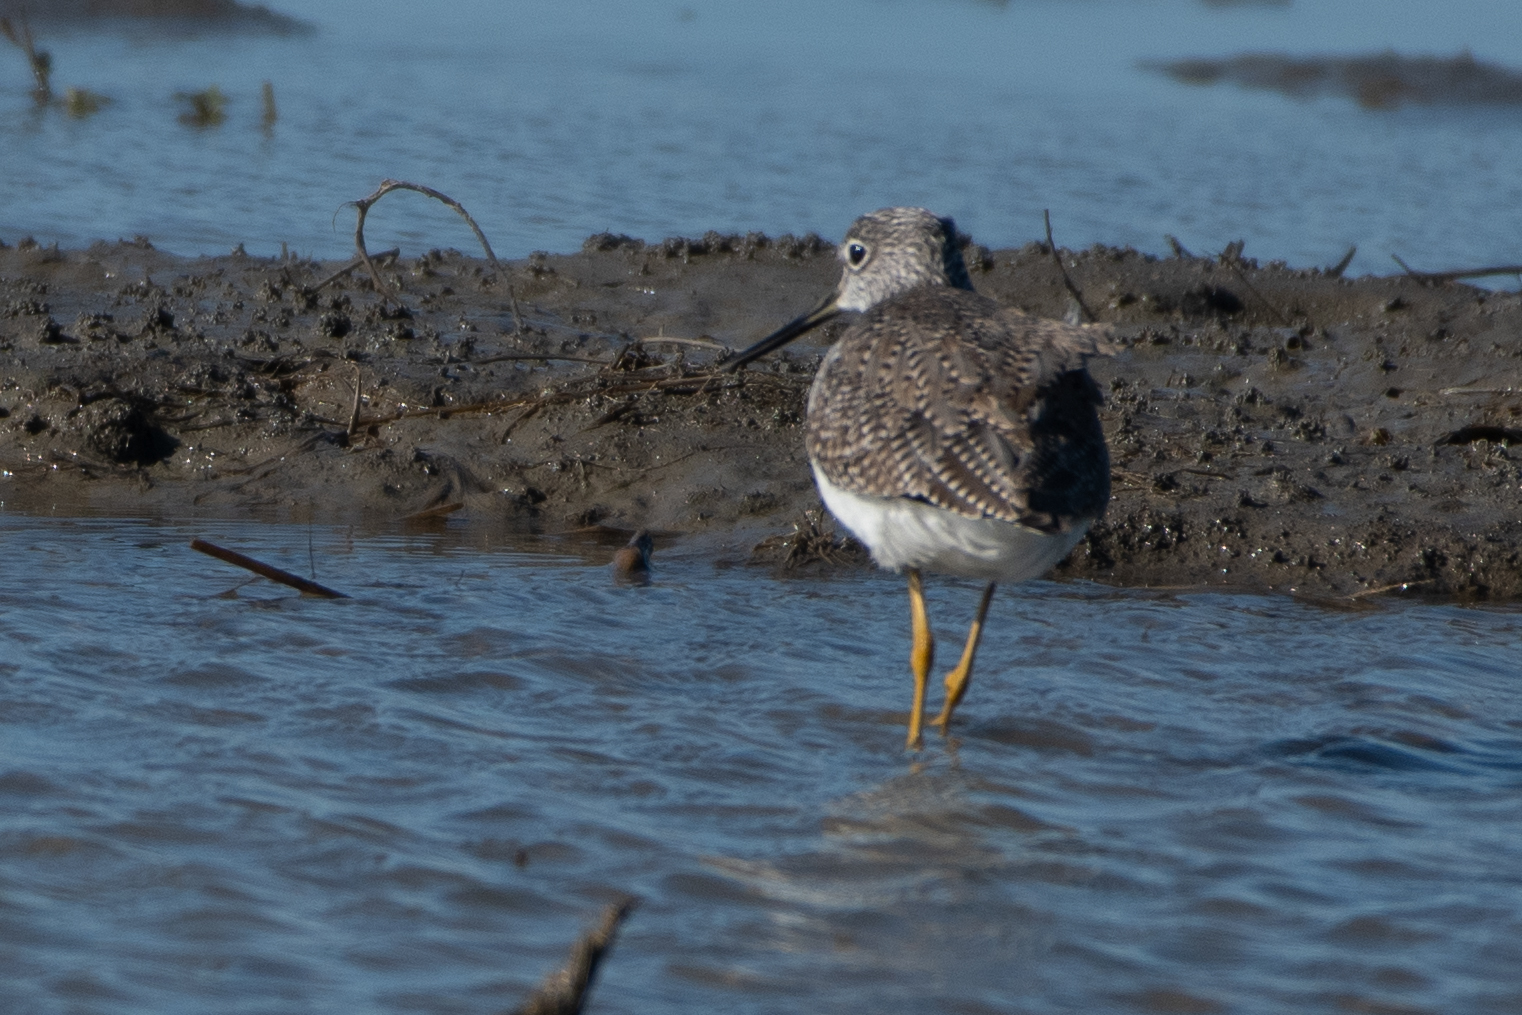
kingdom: Animalia
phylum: Chordata
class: Aves
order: Charadriiformes
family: Scolopacidae
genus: Tringa
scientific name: Tringa melanoleuca
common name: Greater yellowlegs
